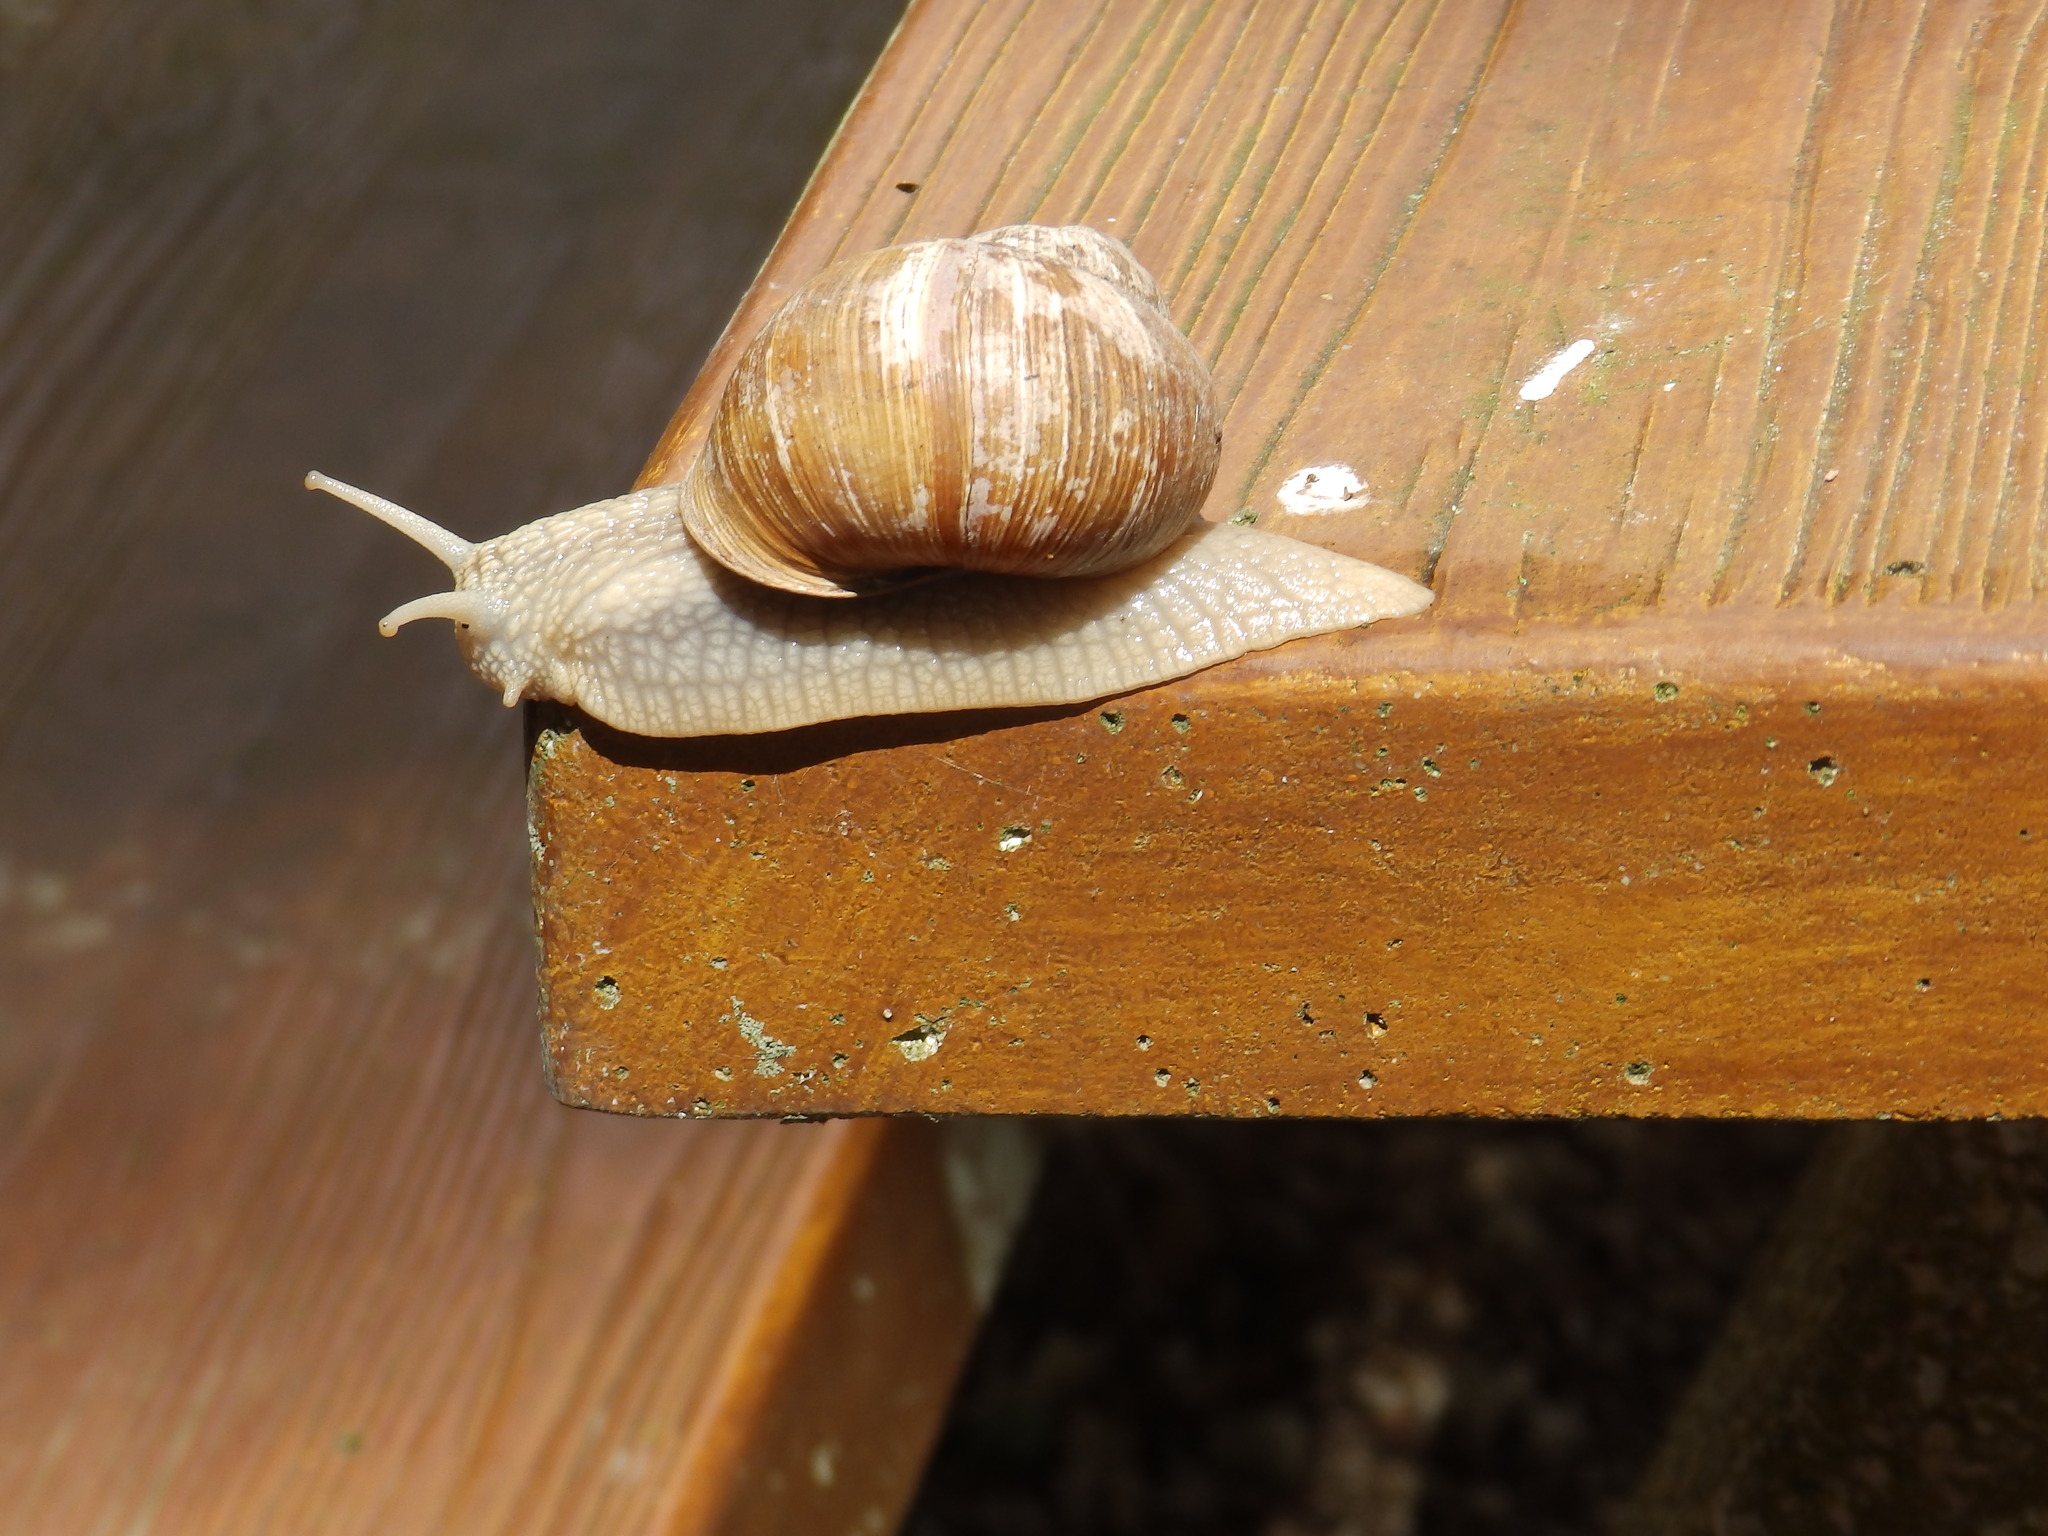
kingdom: Animalia
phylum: Mollusca
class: Gastropoda
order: Stylommatophora
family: Helicidae
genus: Helix
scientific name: Helix pomatia
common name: Roman snail
